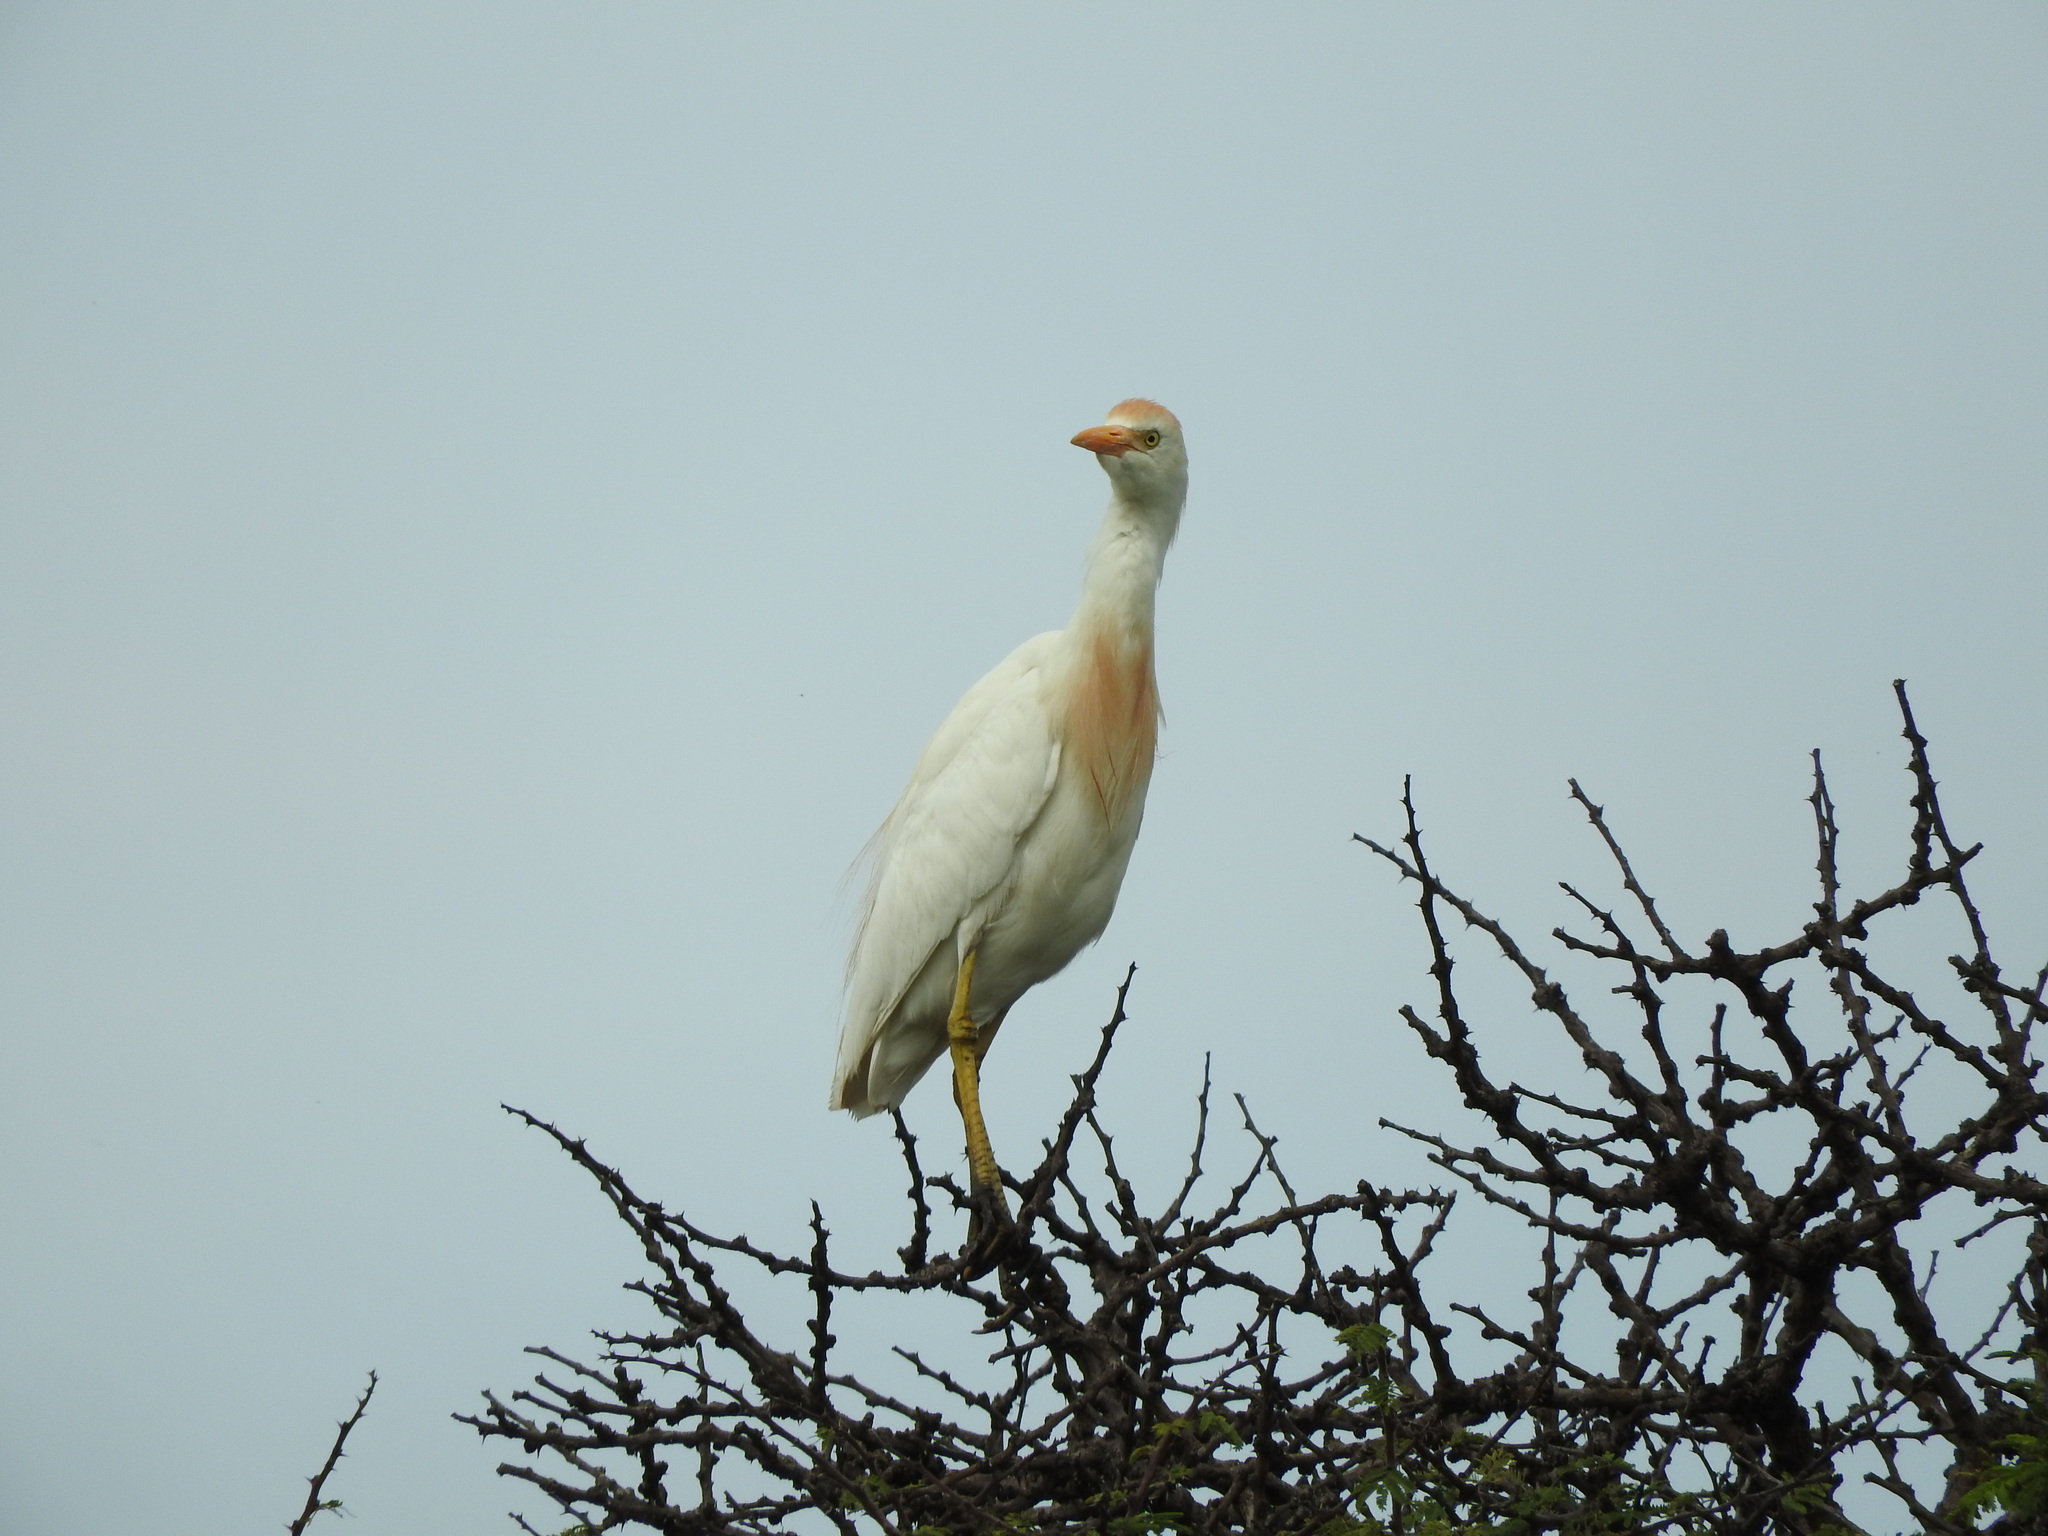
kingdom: Animalia
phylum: Chordata
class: Aves
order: Pelecaniformes
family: Ardeidae
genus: Bubulcus
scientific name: Bubulcus ibis
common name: Cattle egret
